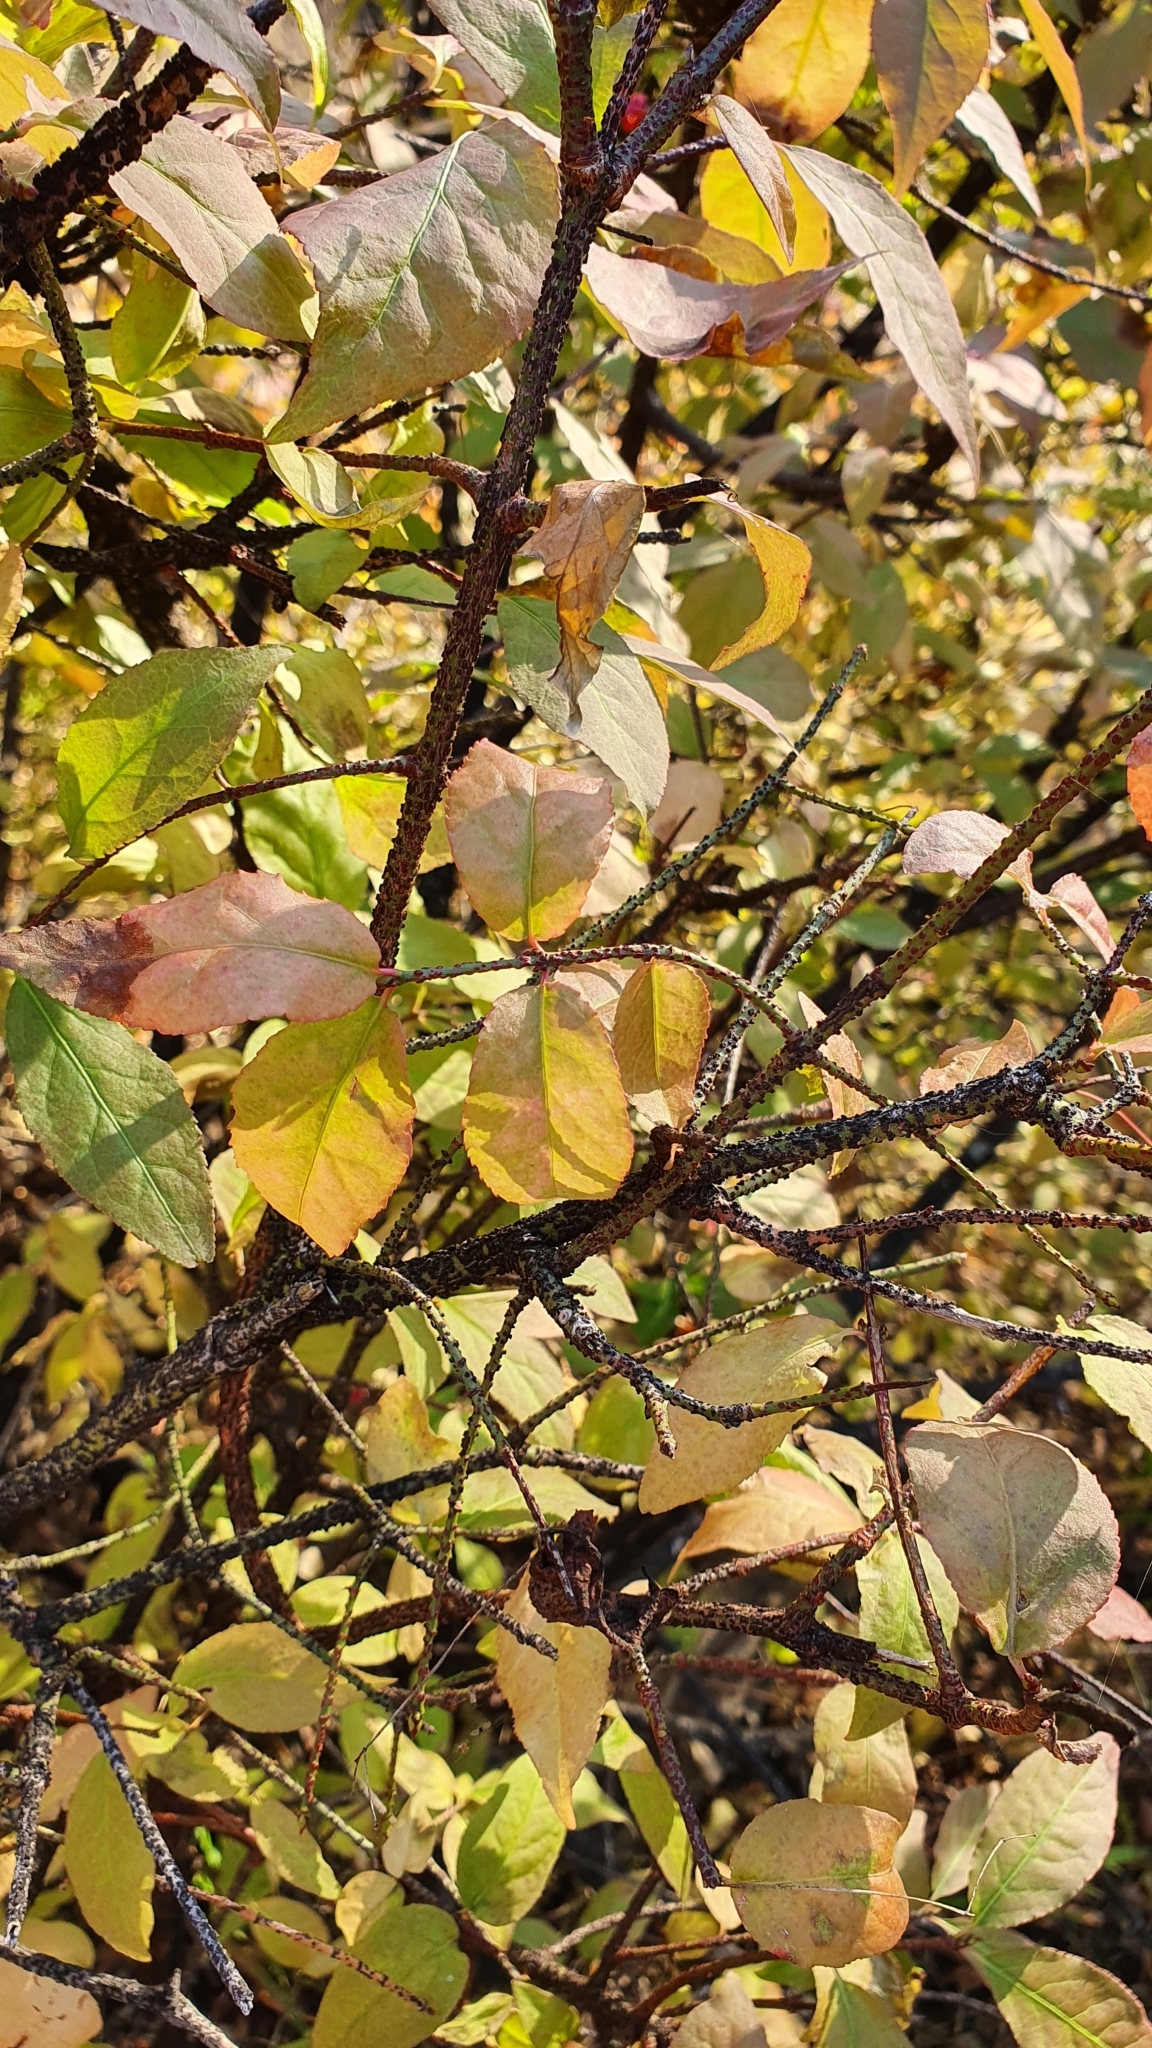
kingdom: Plantae
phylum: Tracheophyta
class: Magnoliopsida
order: Celastrales
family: Celastraceae
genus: Euonymus
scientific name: Euonymus verrucosus
